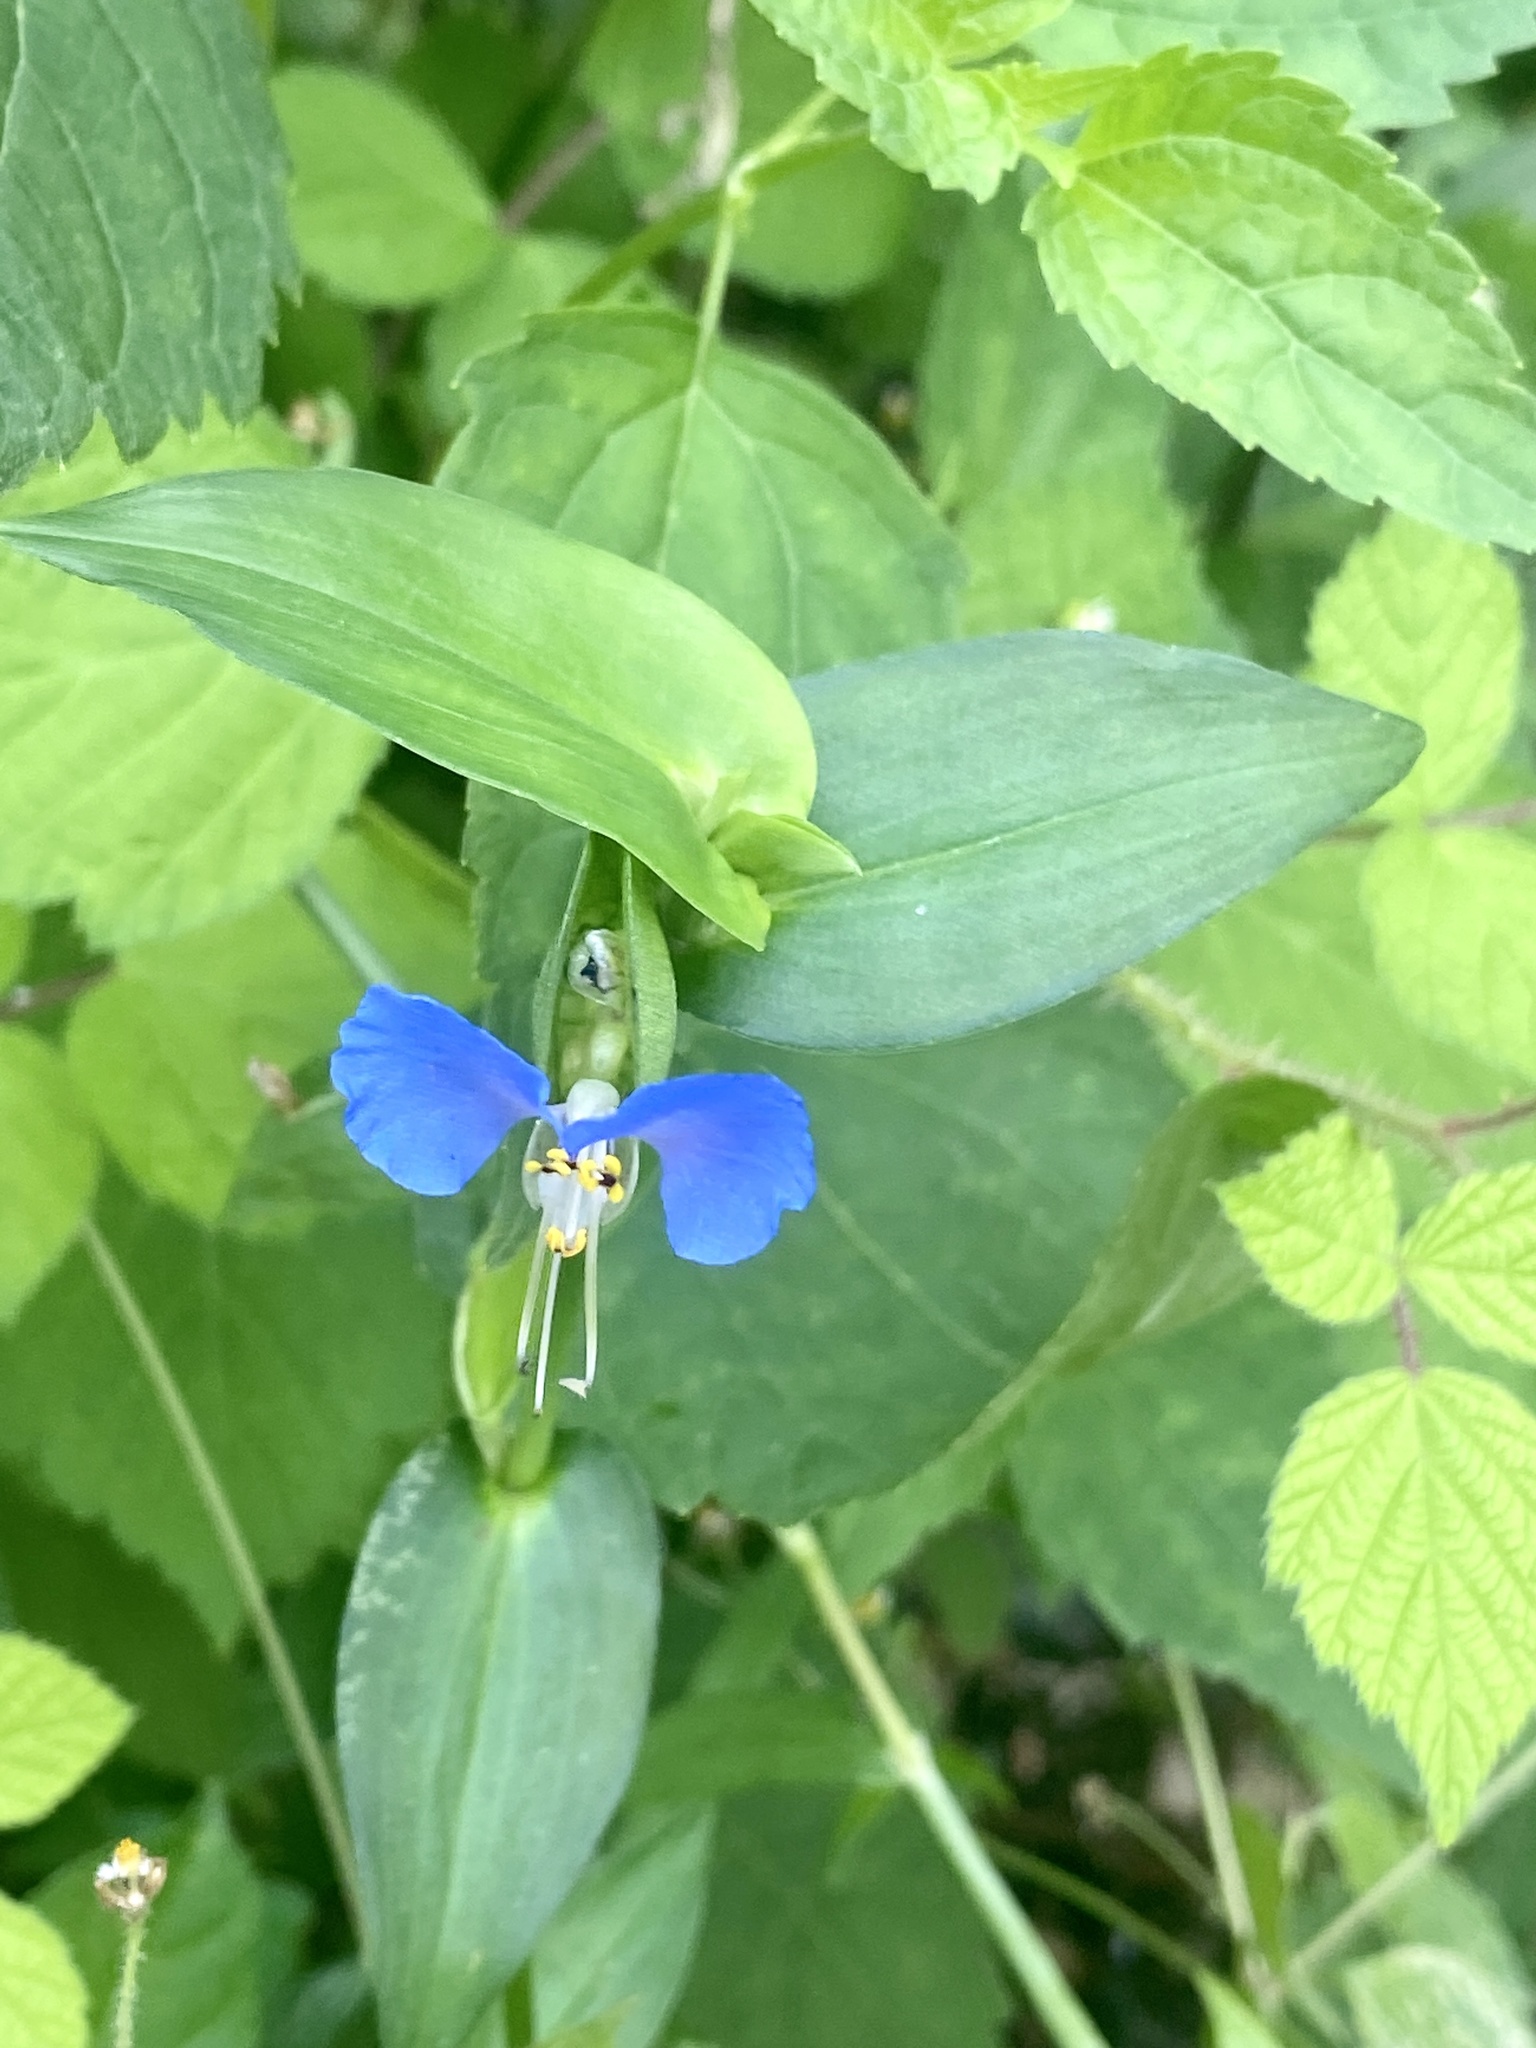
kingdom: Plantae
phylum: Tracheophyta
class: Liliopsida
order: Commelinales
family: Commelinaceae
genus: Commelina
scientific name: Commelina communis
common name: Asiatic dayflower
